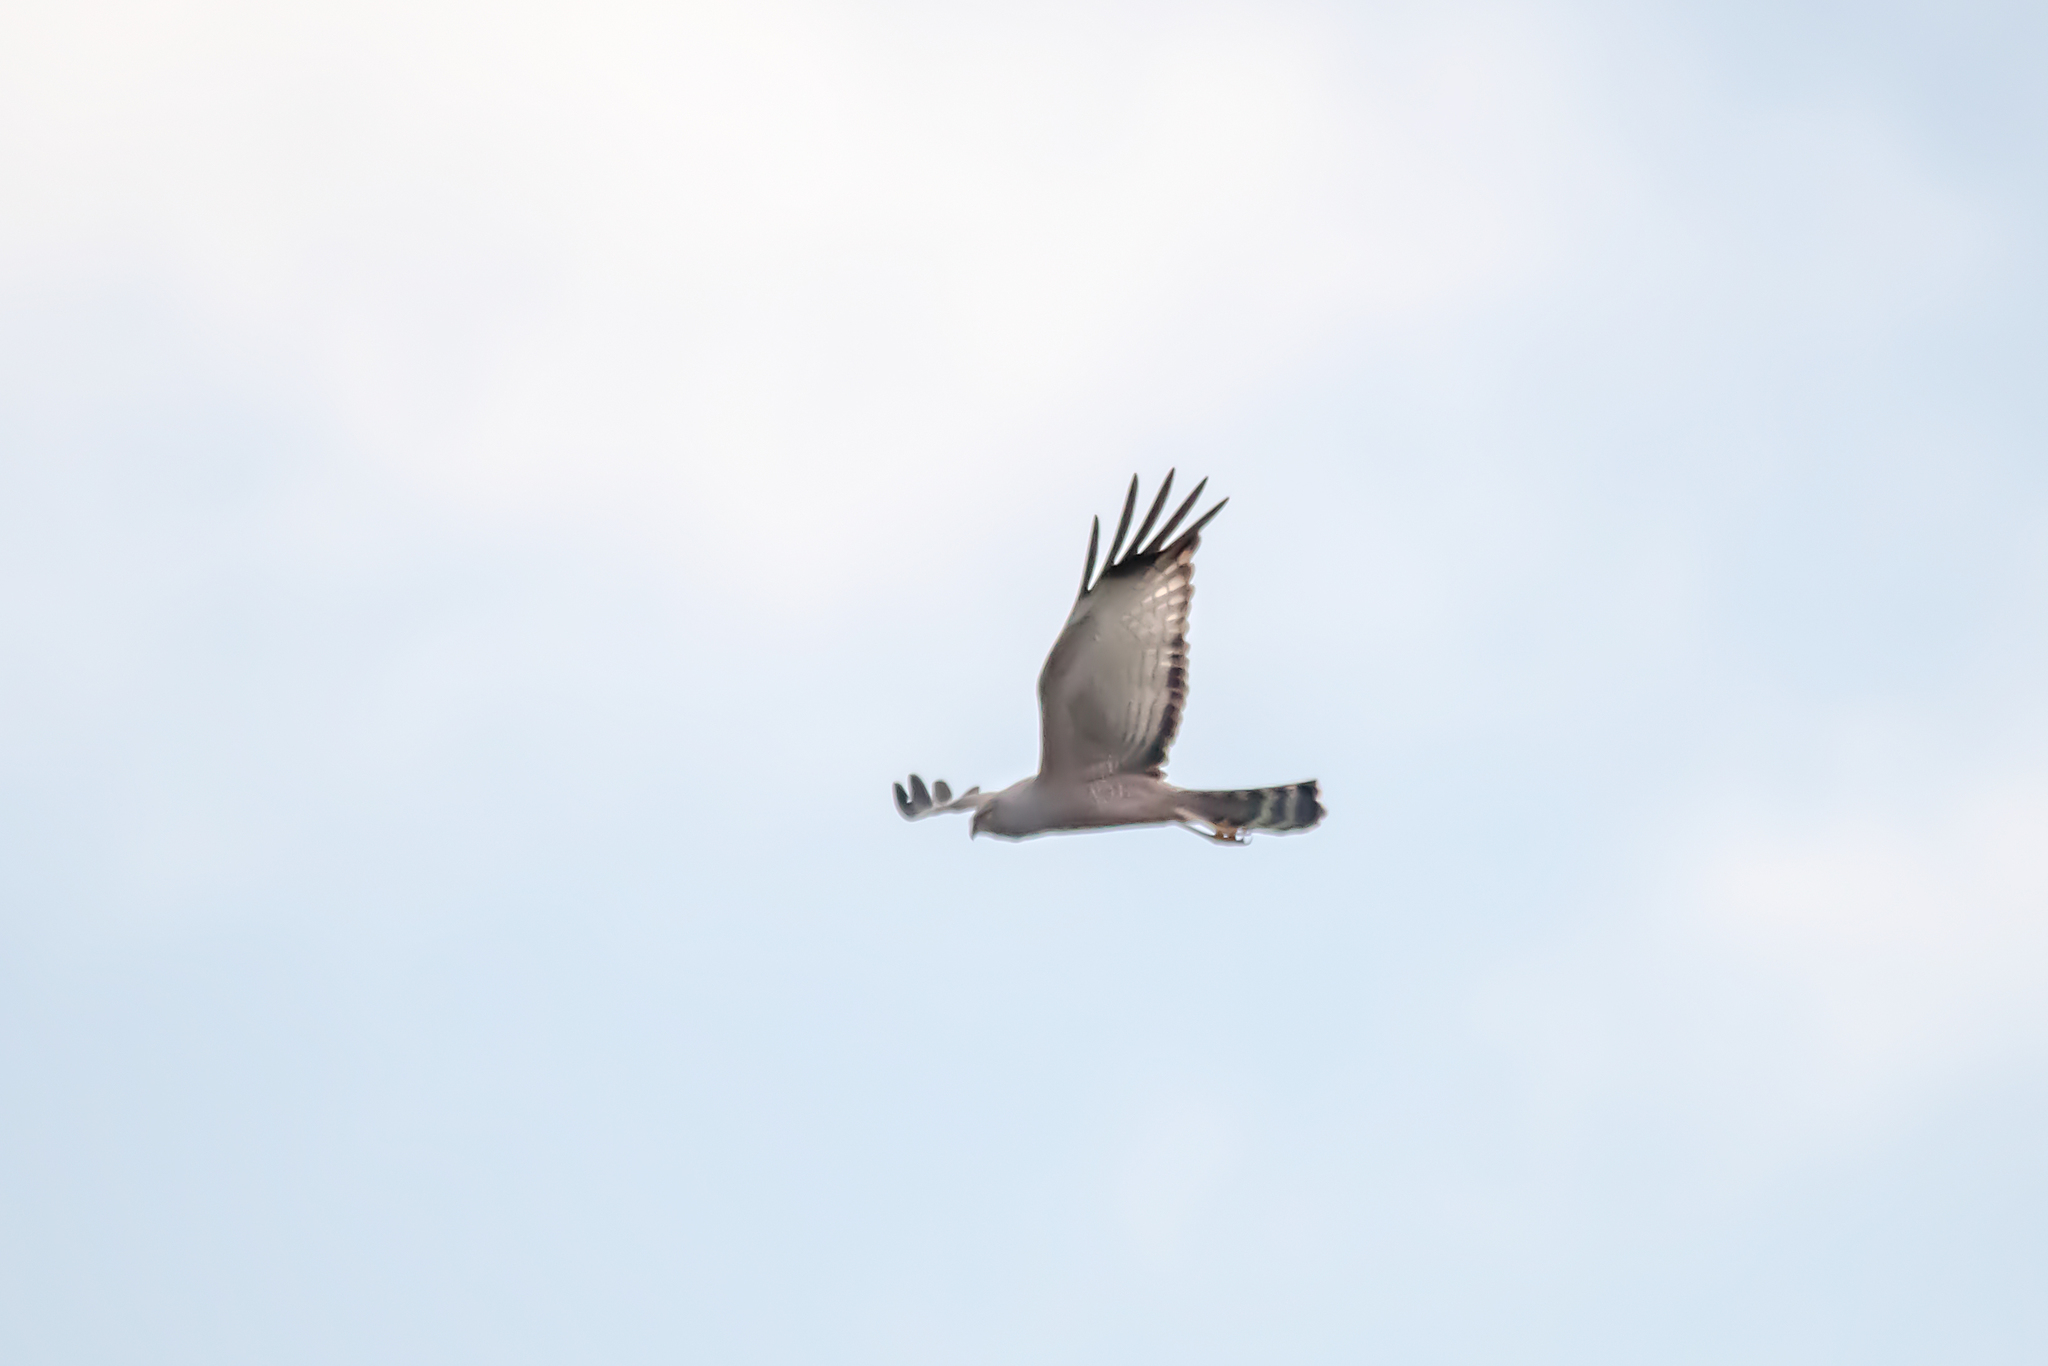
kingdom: Animalia
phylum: Chordata
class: Aves
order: Accipitriformes
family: Accipitridae
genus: Circus
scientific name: Circus assimilis
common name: Spotted harrier
